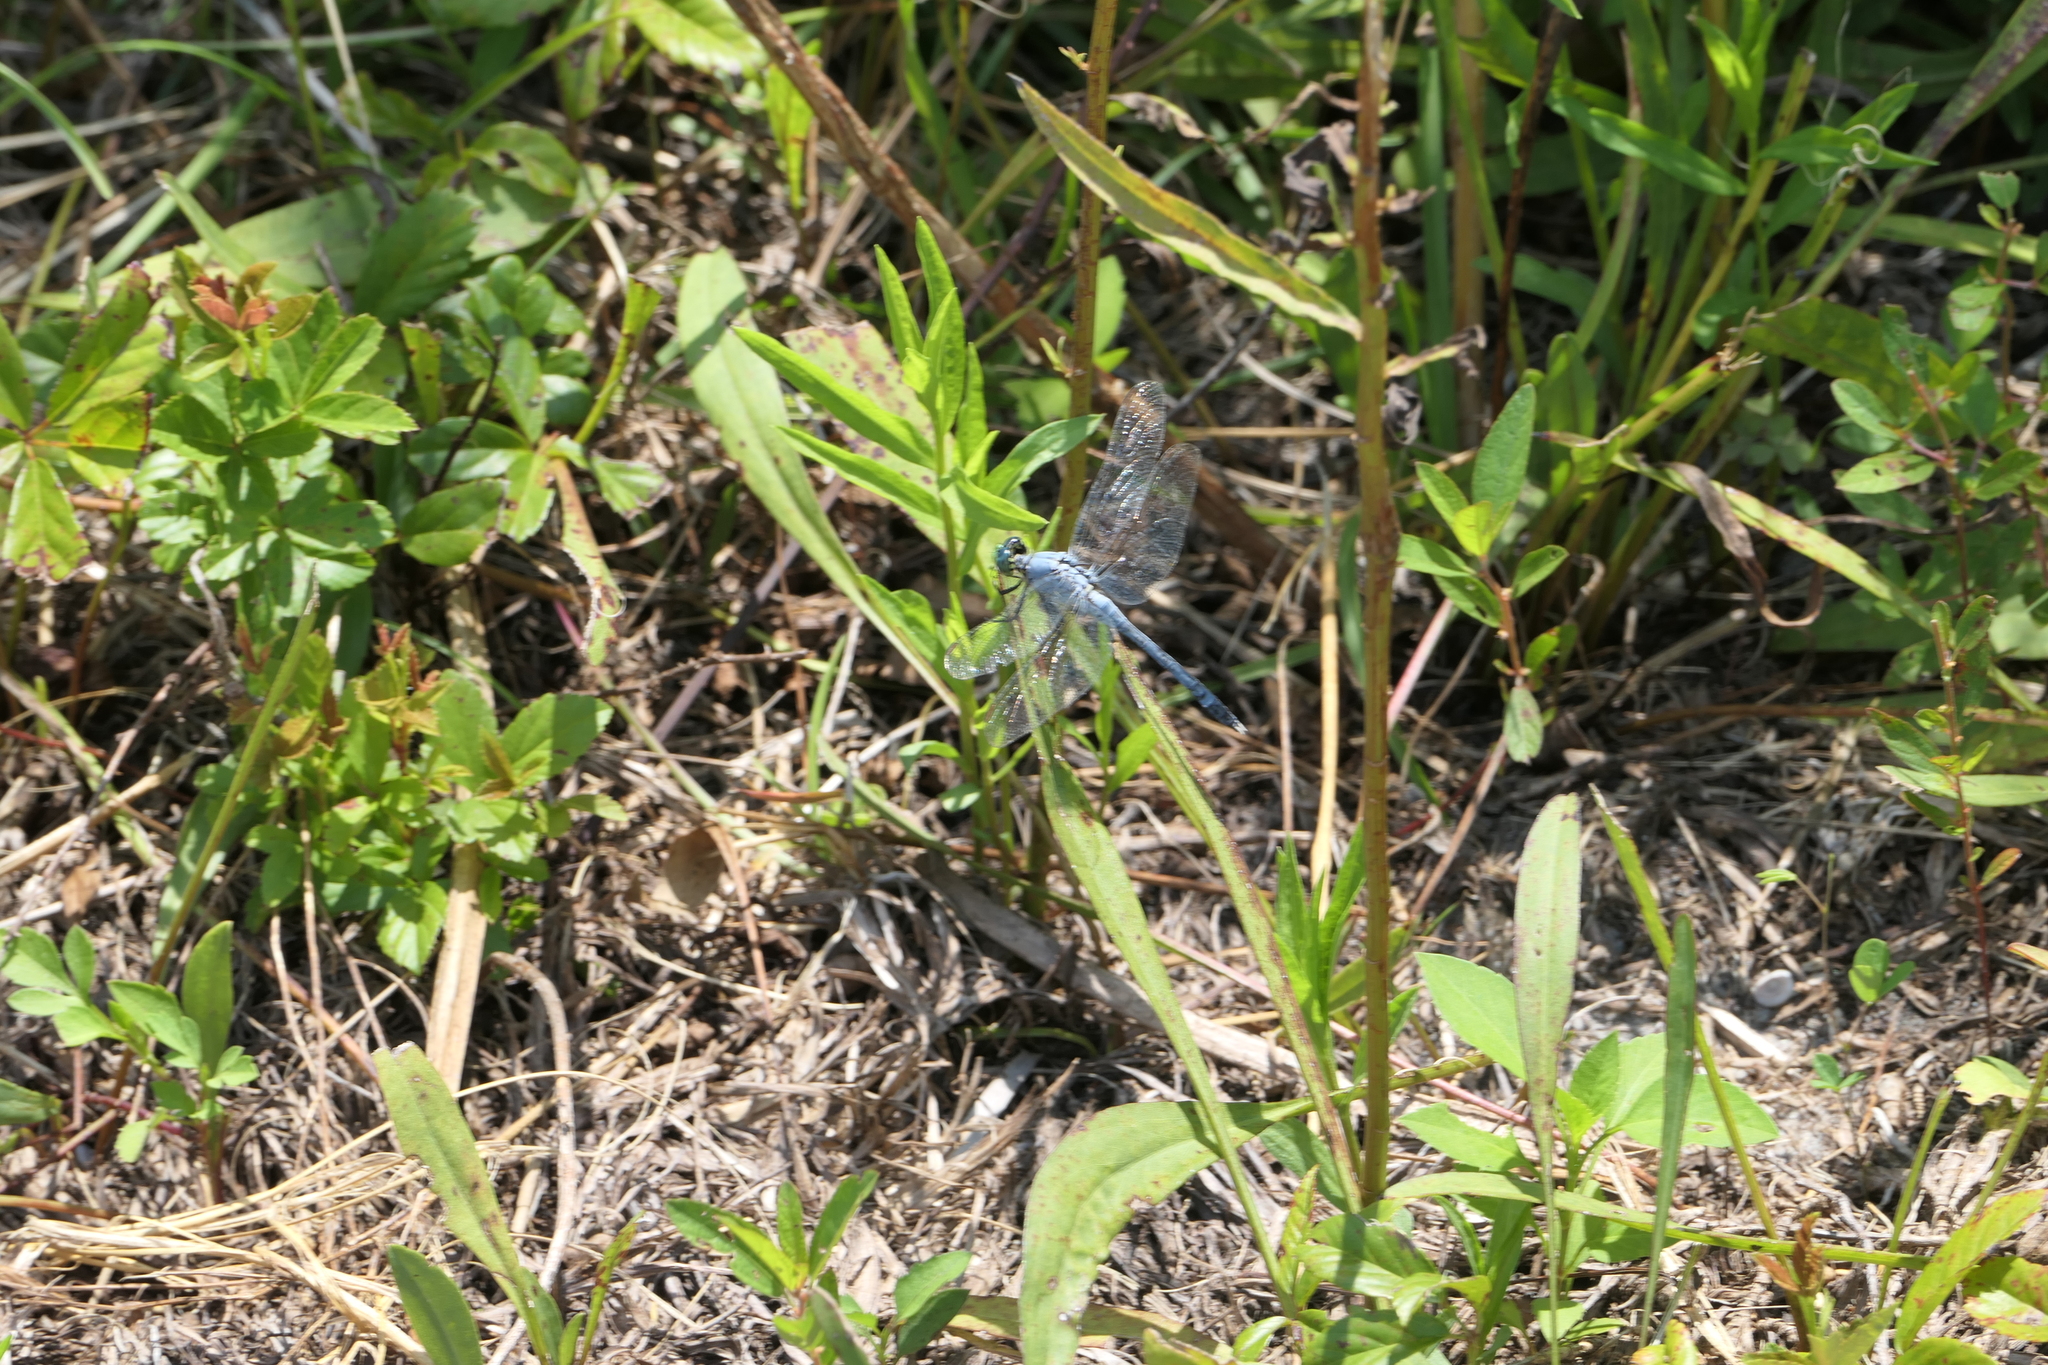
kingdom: Animalia
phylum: Arthropoda
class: Insecta
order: Odonata
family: Libellulidae
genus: Erythemis
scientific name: Erythemis simplicicollis
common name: Eastern pondhawk
